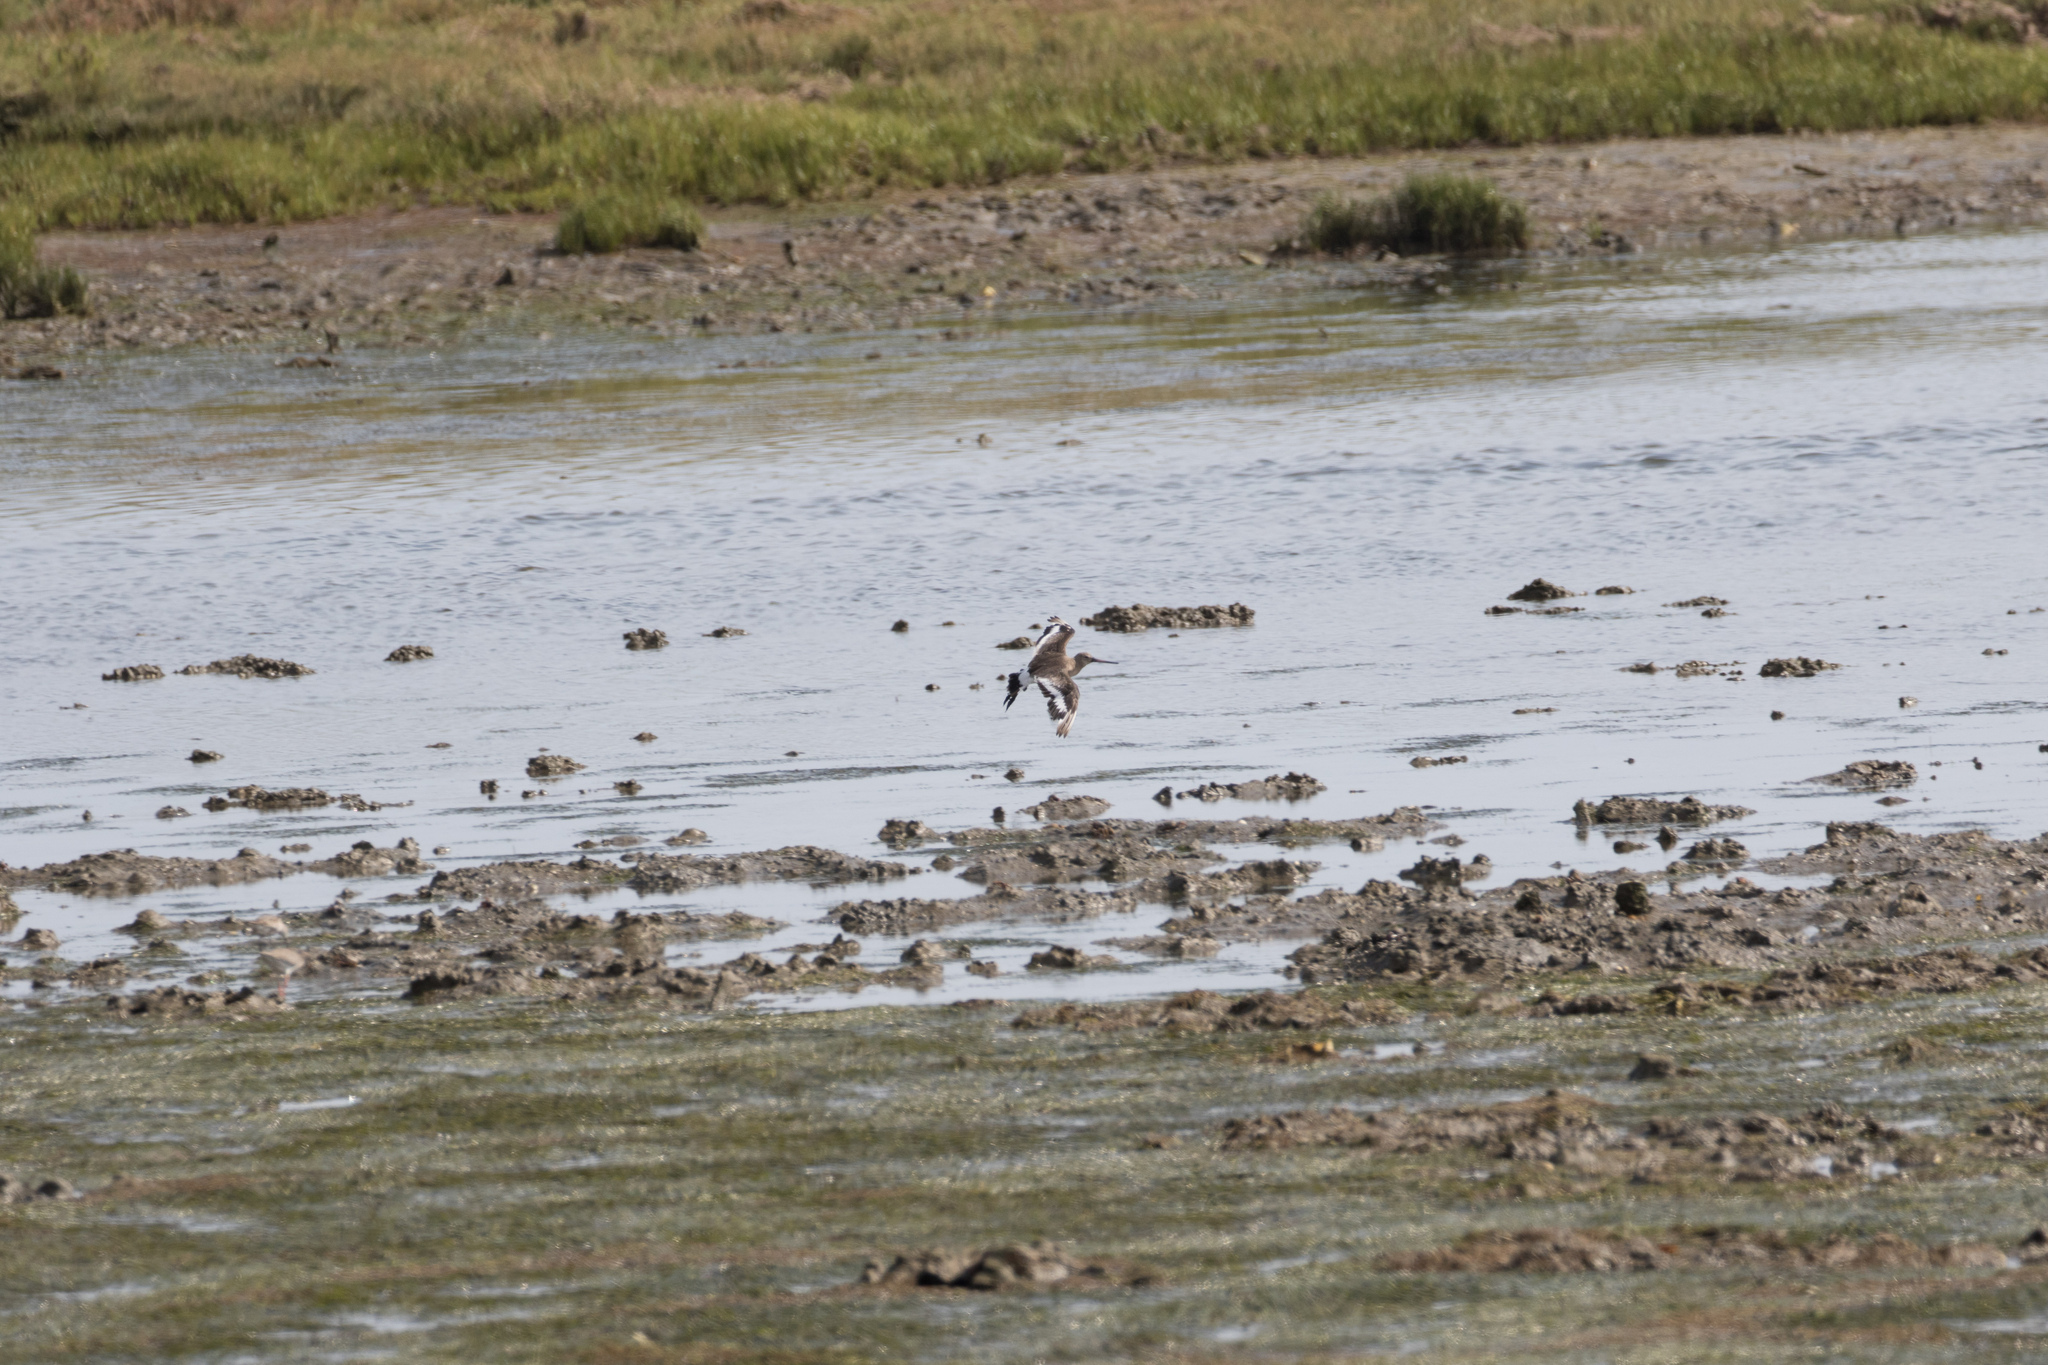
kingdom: Animalia
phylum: Chordata
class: Aves
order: Charadriiformes
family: Scolopacidae
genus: Limosa
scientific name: Limosa limosa
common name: Black-tailed godwit
